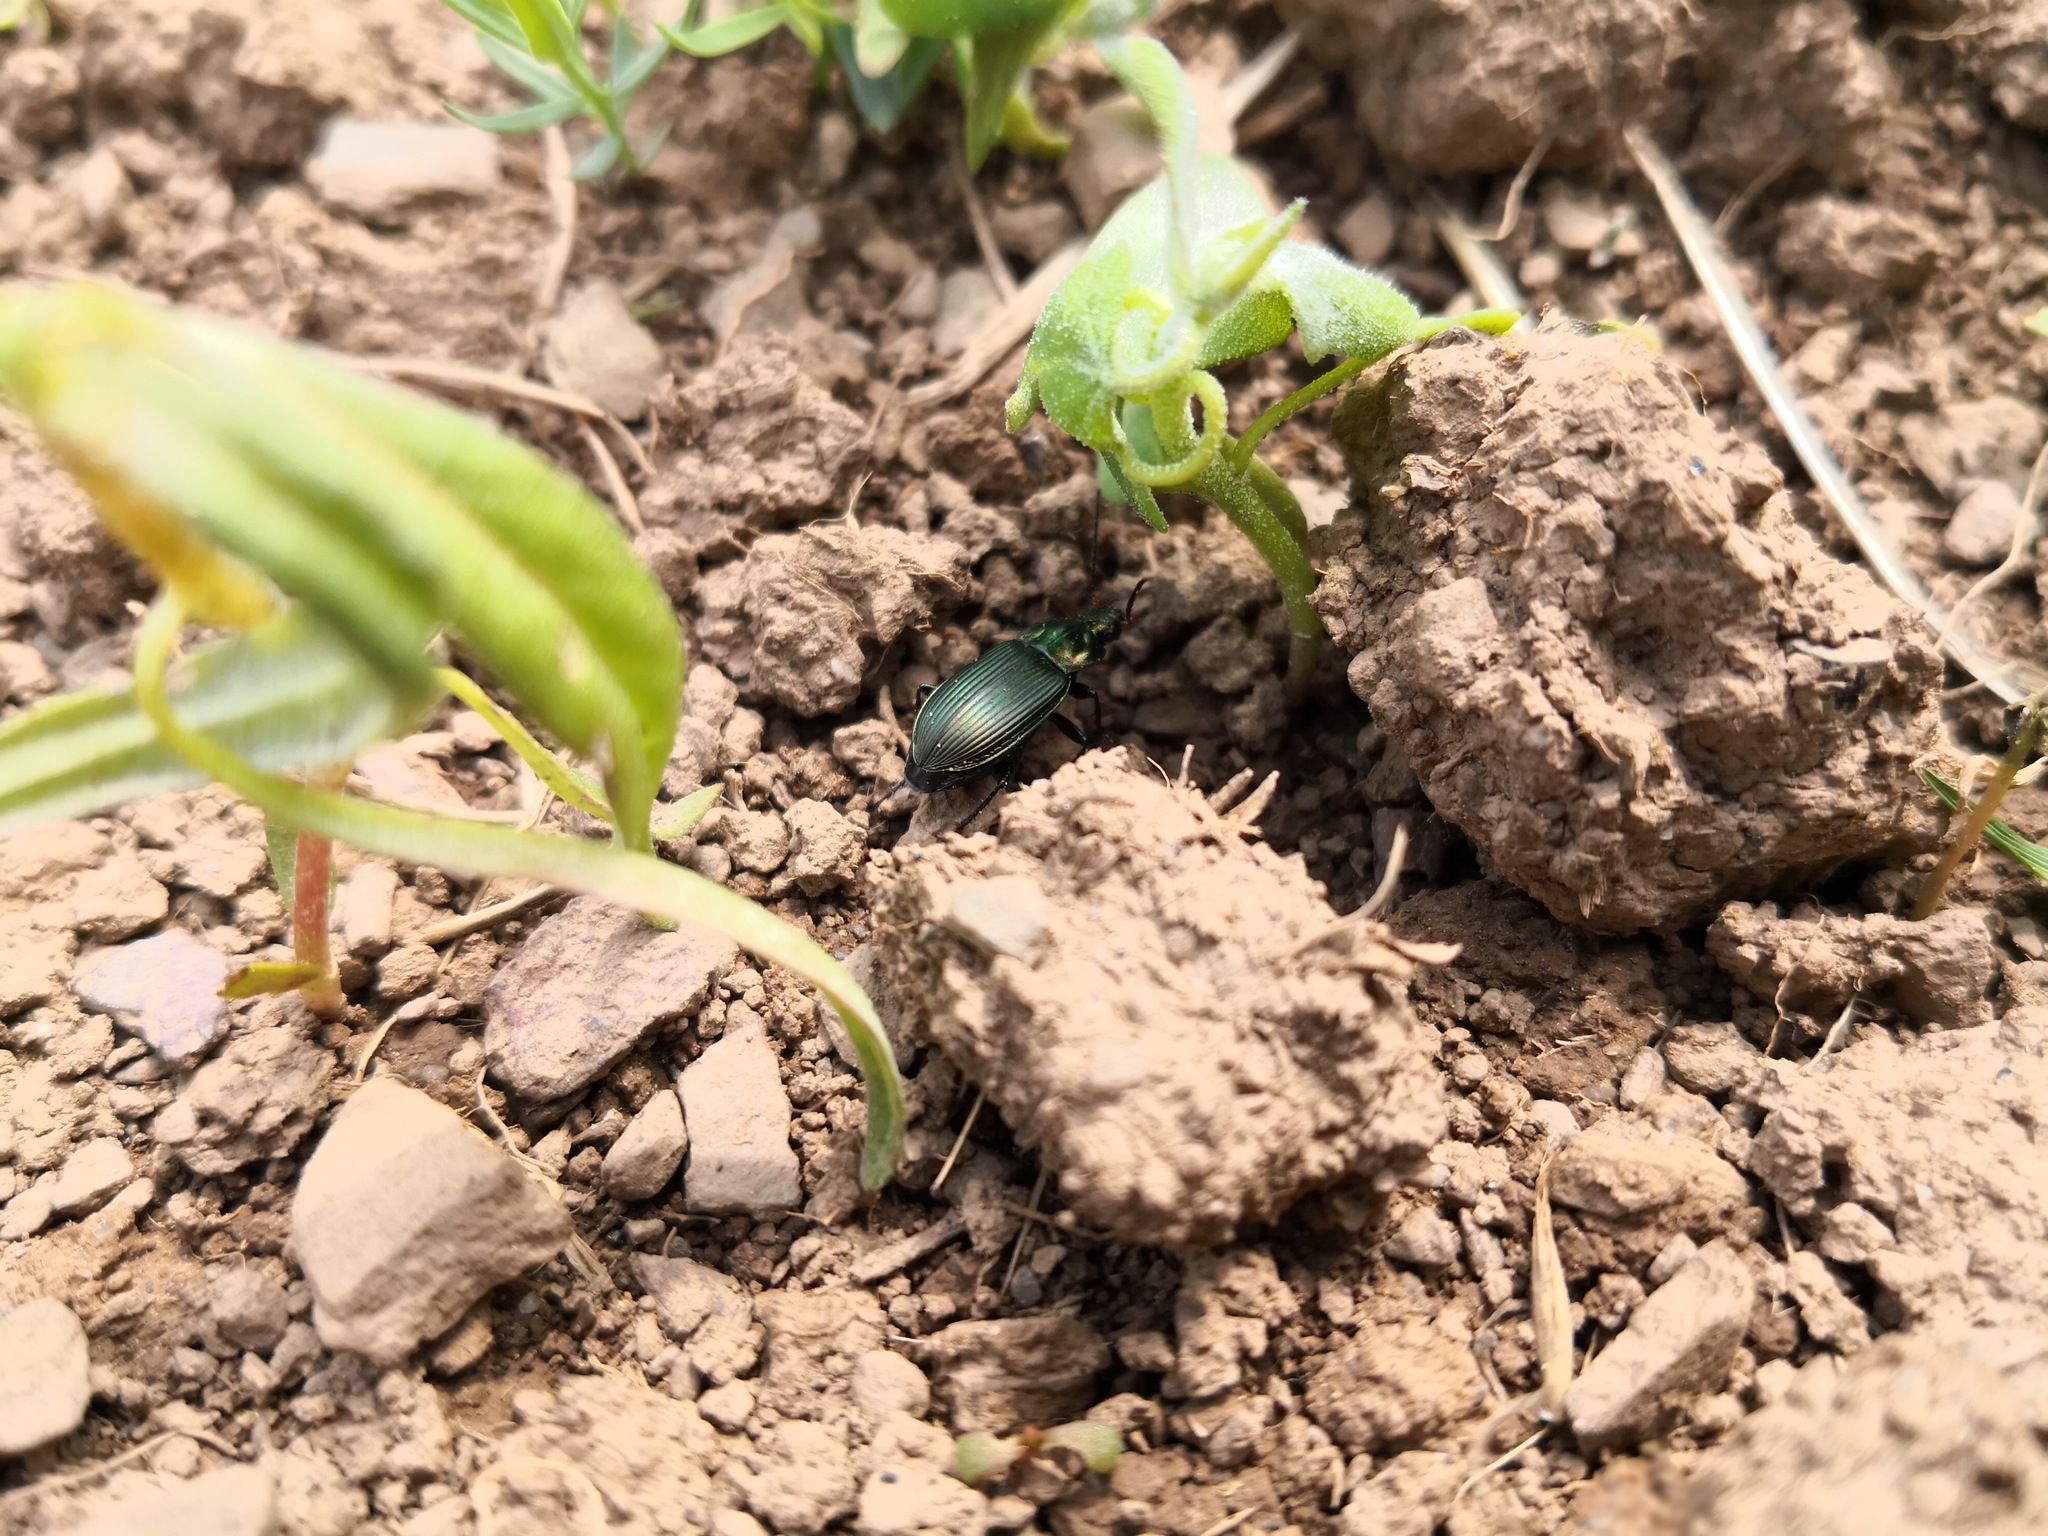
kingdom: Animalia
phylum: Arthropoda
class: Insecta
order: Coleoptera
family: Carabidae
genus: Poecilus
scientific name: Poecilus cupreus
